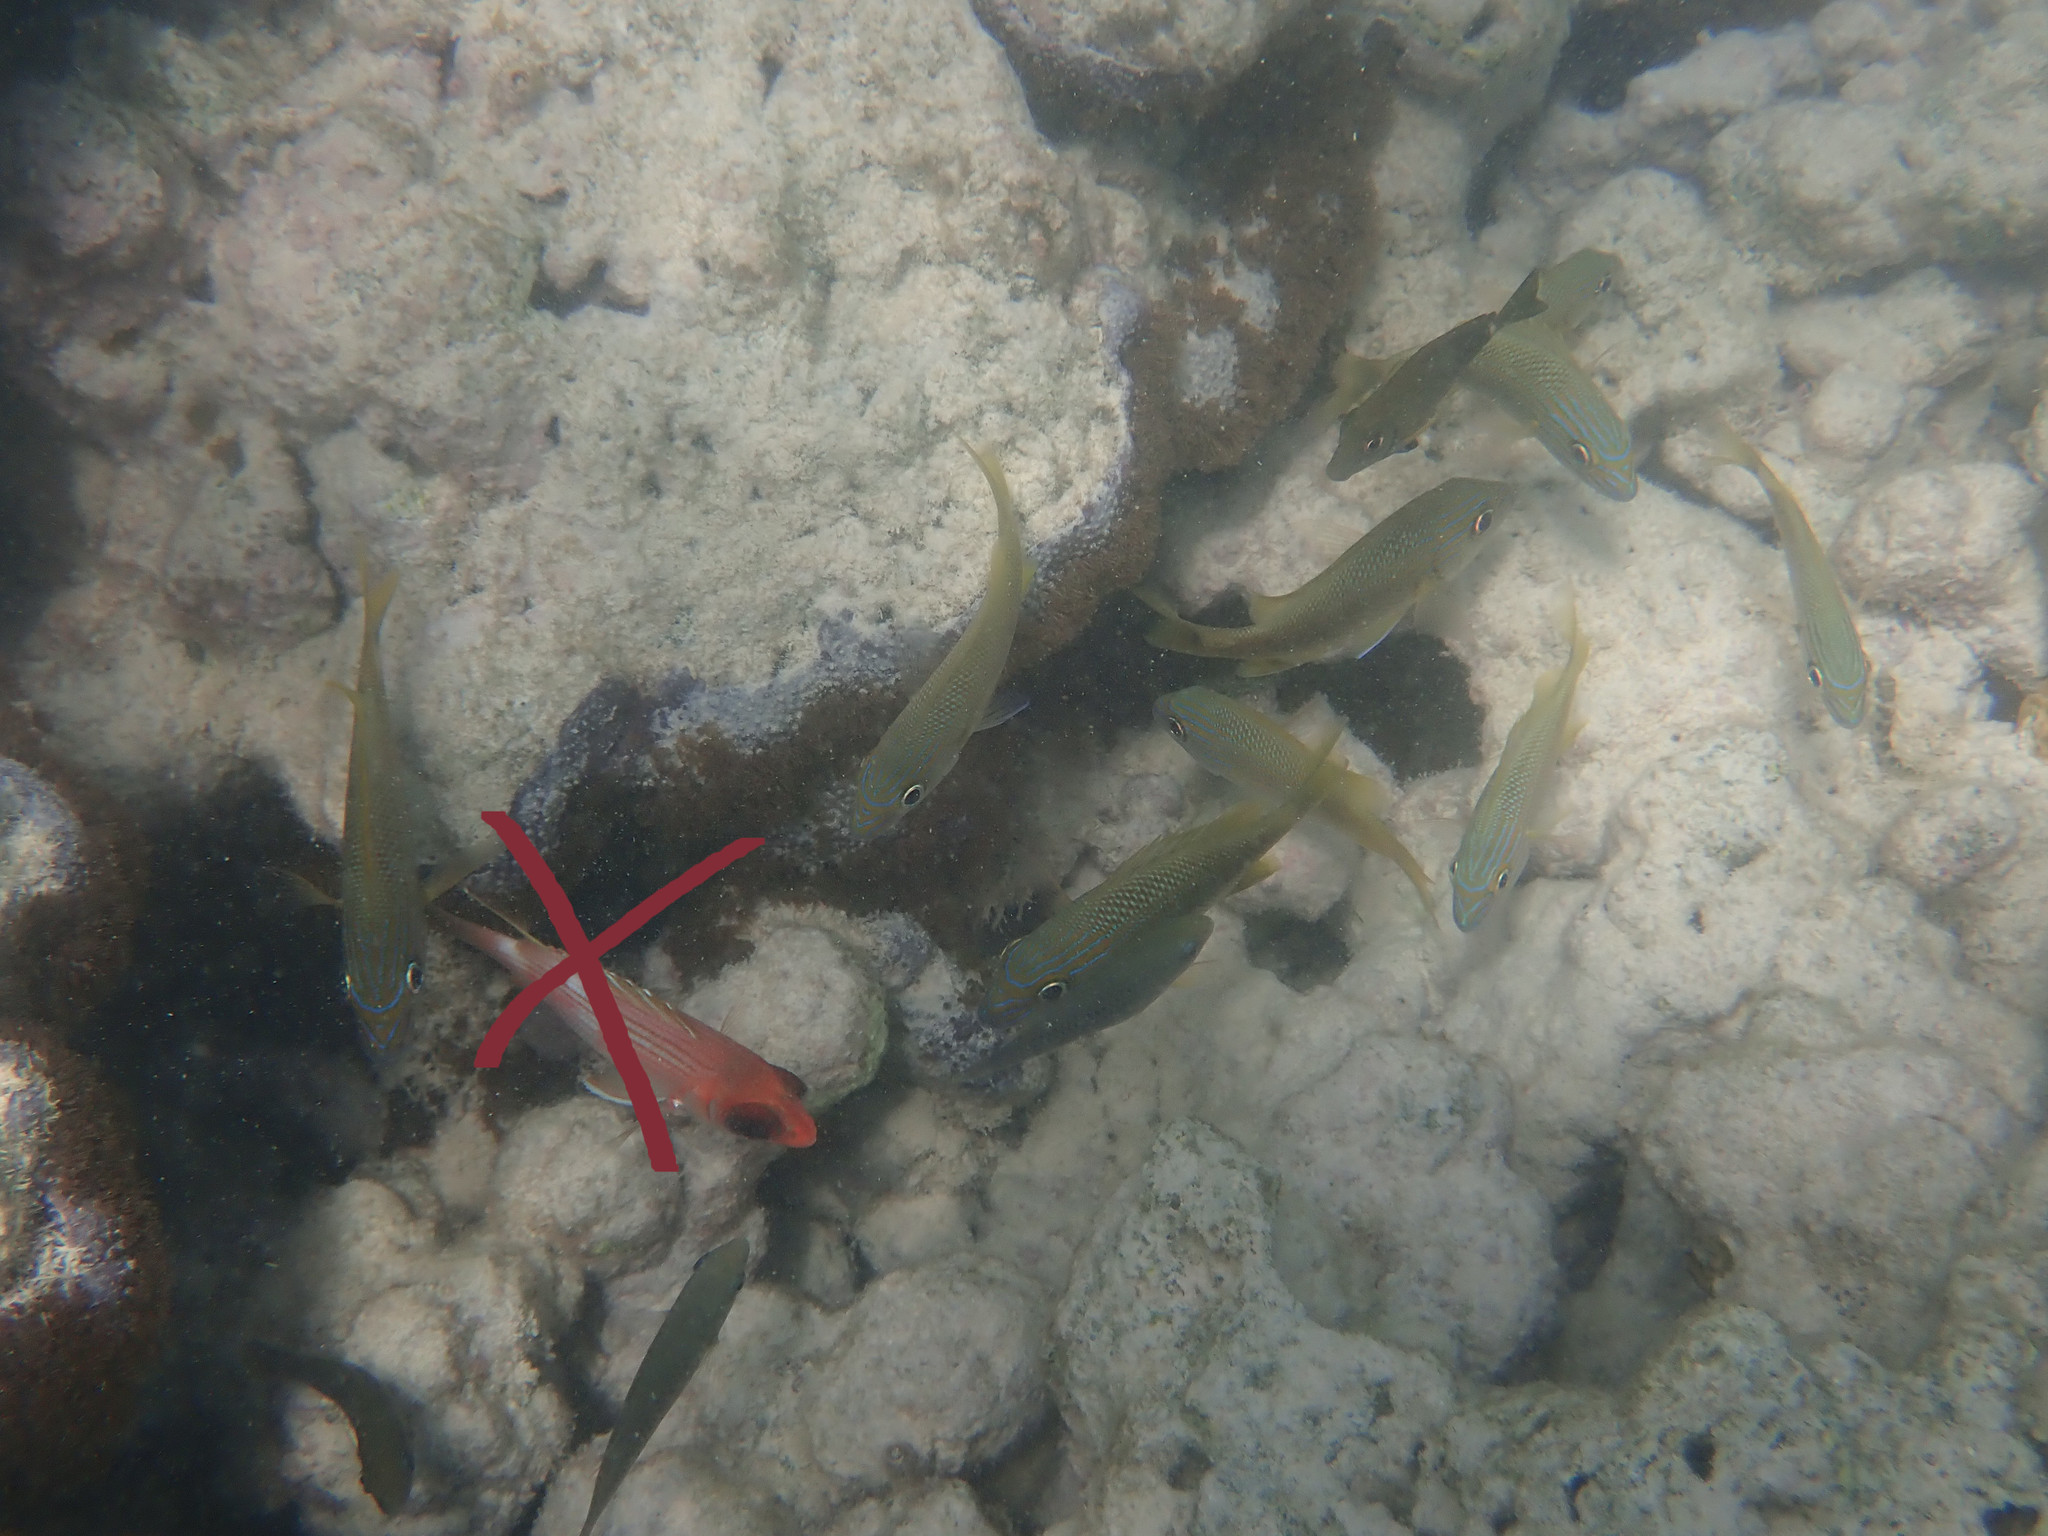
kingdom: Animalia
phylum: Chordata
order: Perciformes
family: Haemulidae
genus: Haemulon
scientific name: Haemulon plumierii
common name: White grunt
